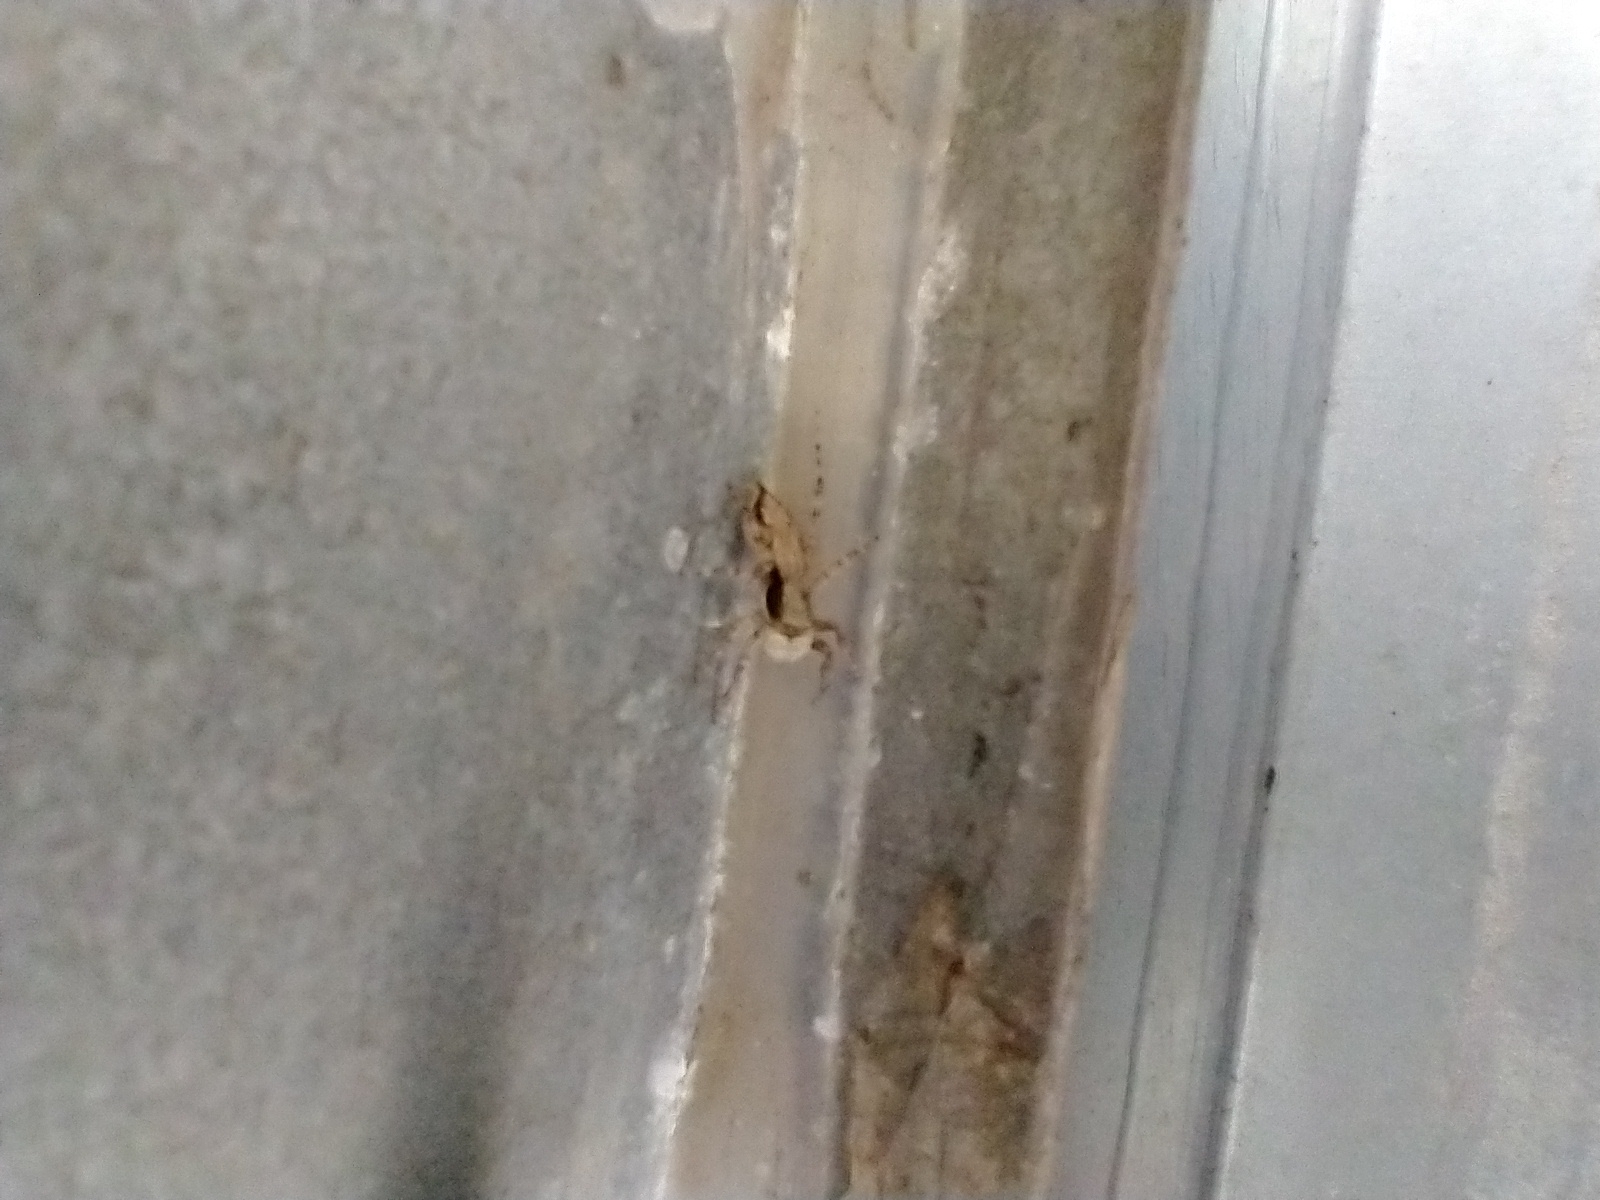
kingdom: Animalia
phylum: Arthropoda
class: Arachnida
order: Araneae
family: Salticidae
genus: Menemerus
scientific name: Menemerus bivittatus
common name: Gray wall jumper
